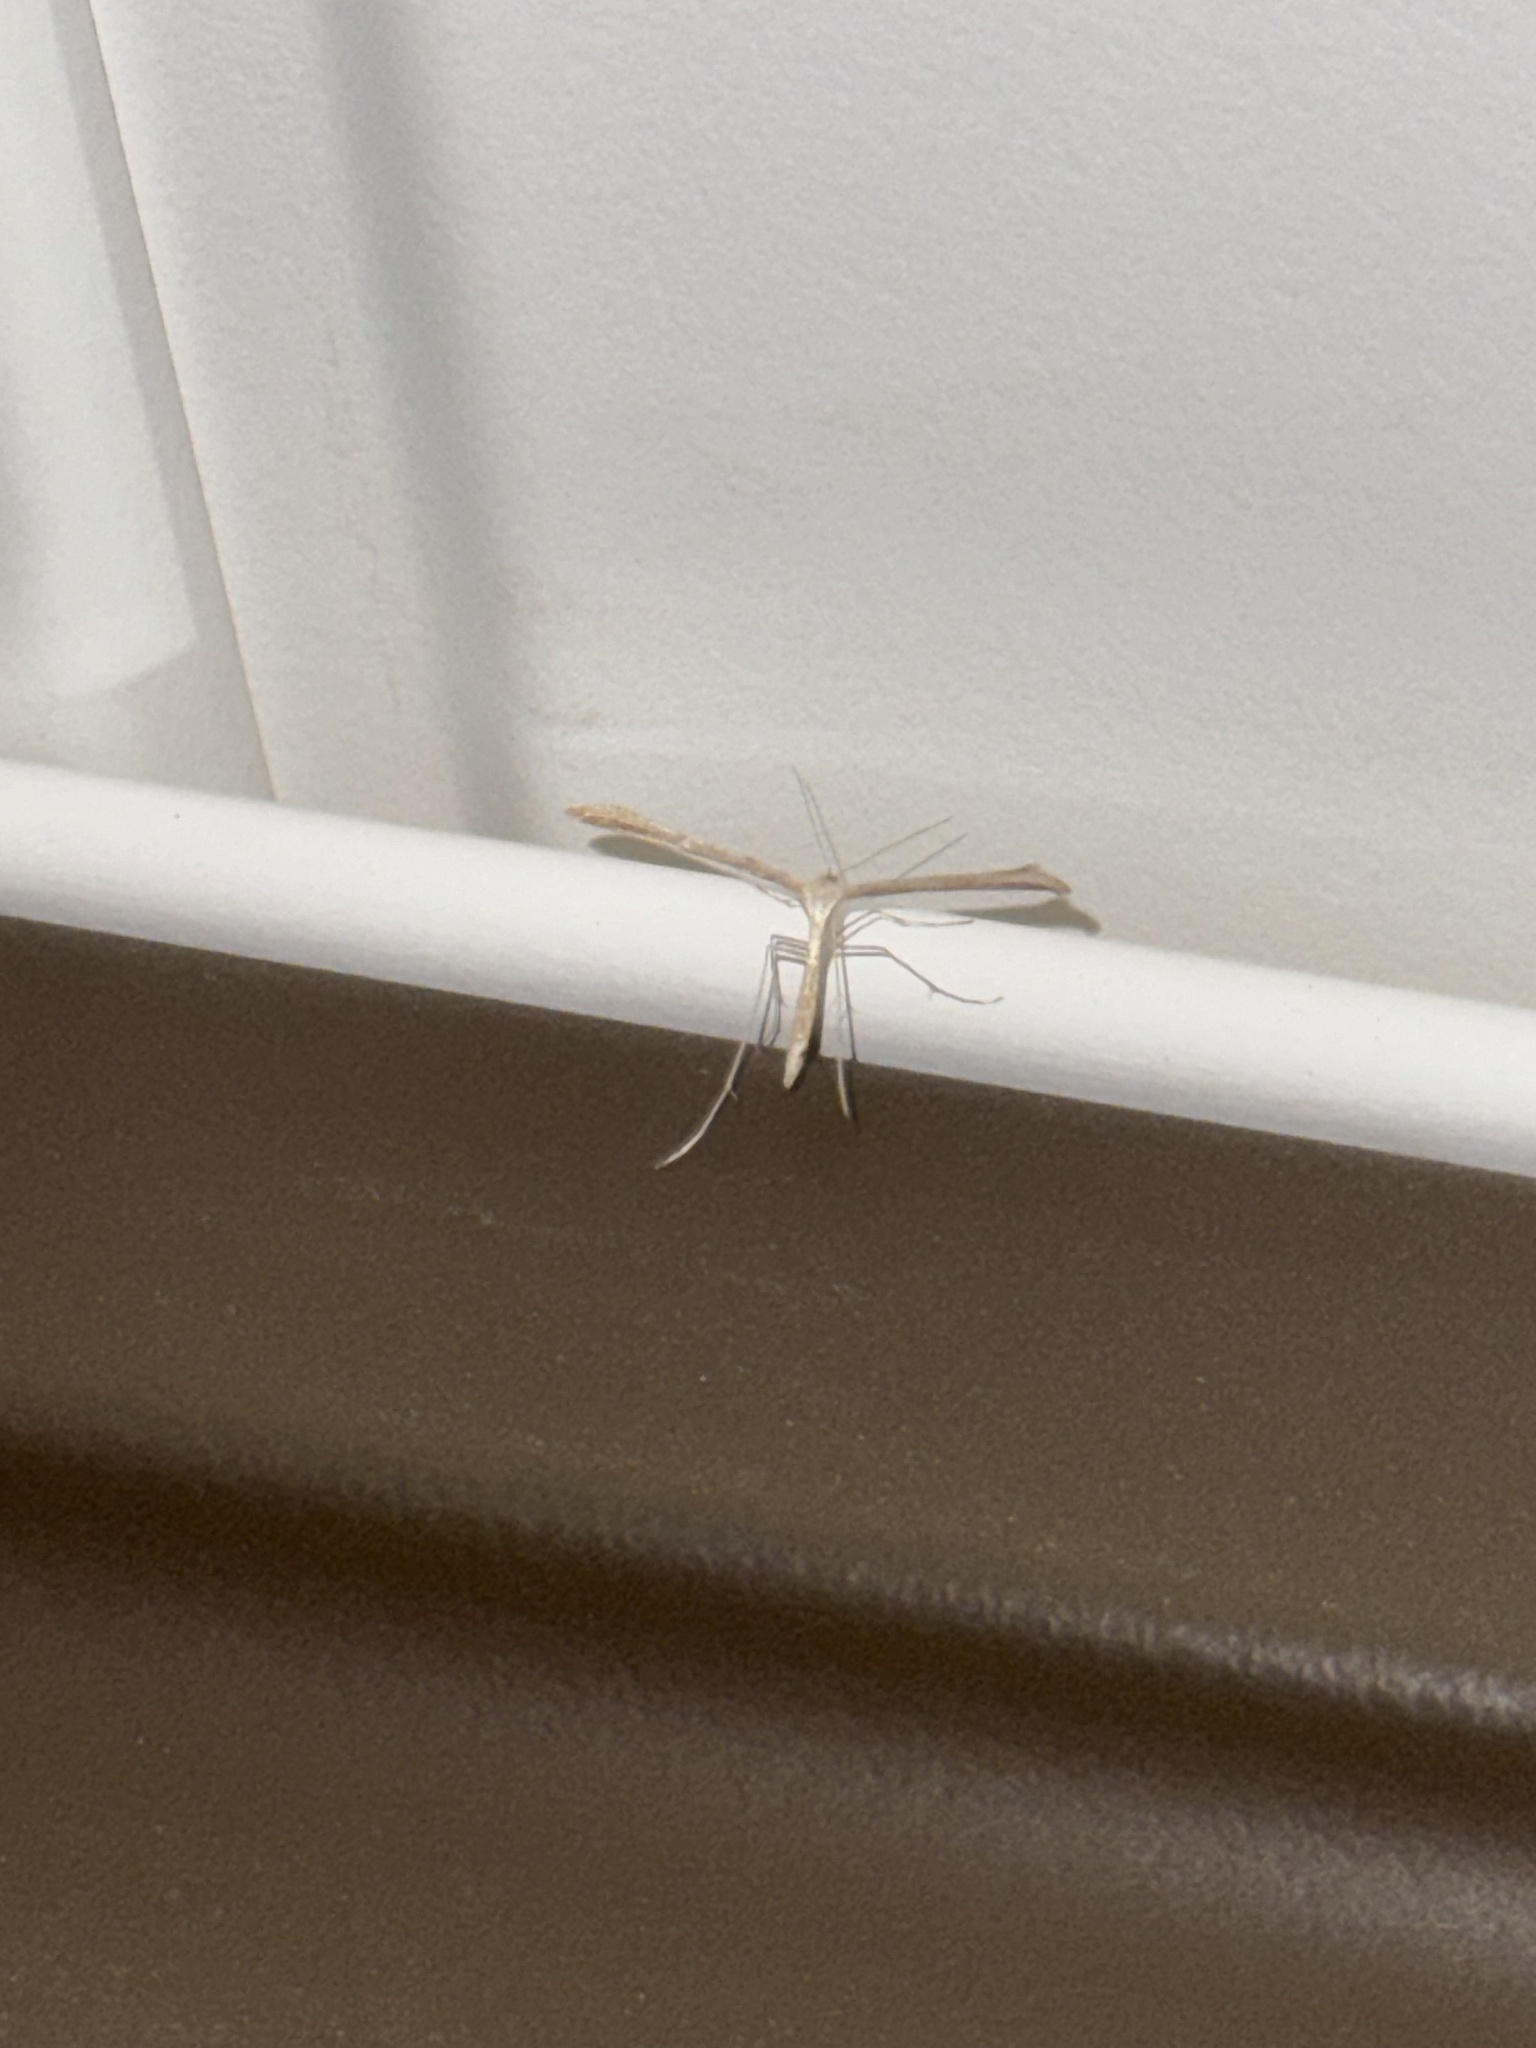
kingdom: Animalia
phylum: Arthropoda
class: Insecta
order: Lepidoptera
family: Pterophoridae
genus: Emmelina
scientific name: Emmelina monodactyla
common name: Common plume
